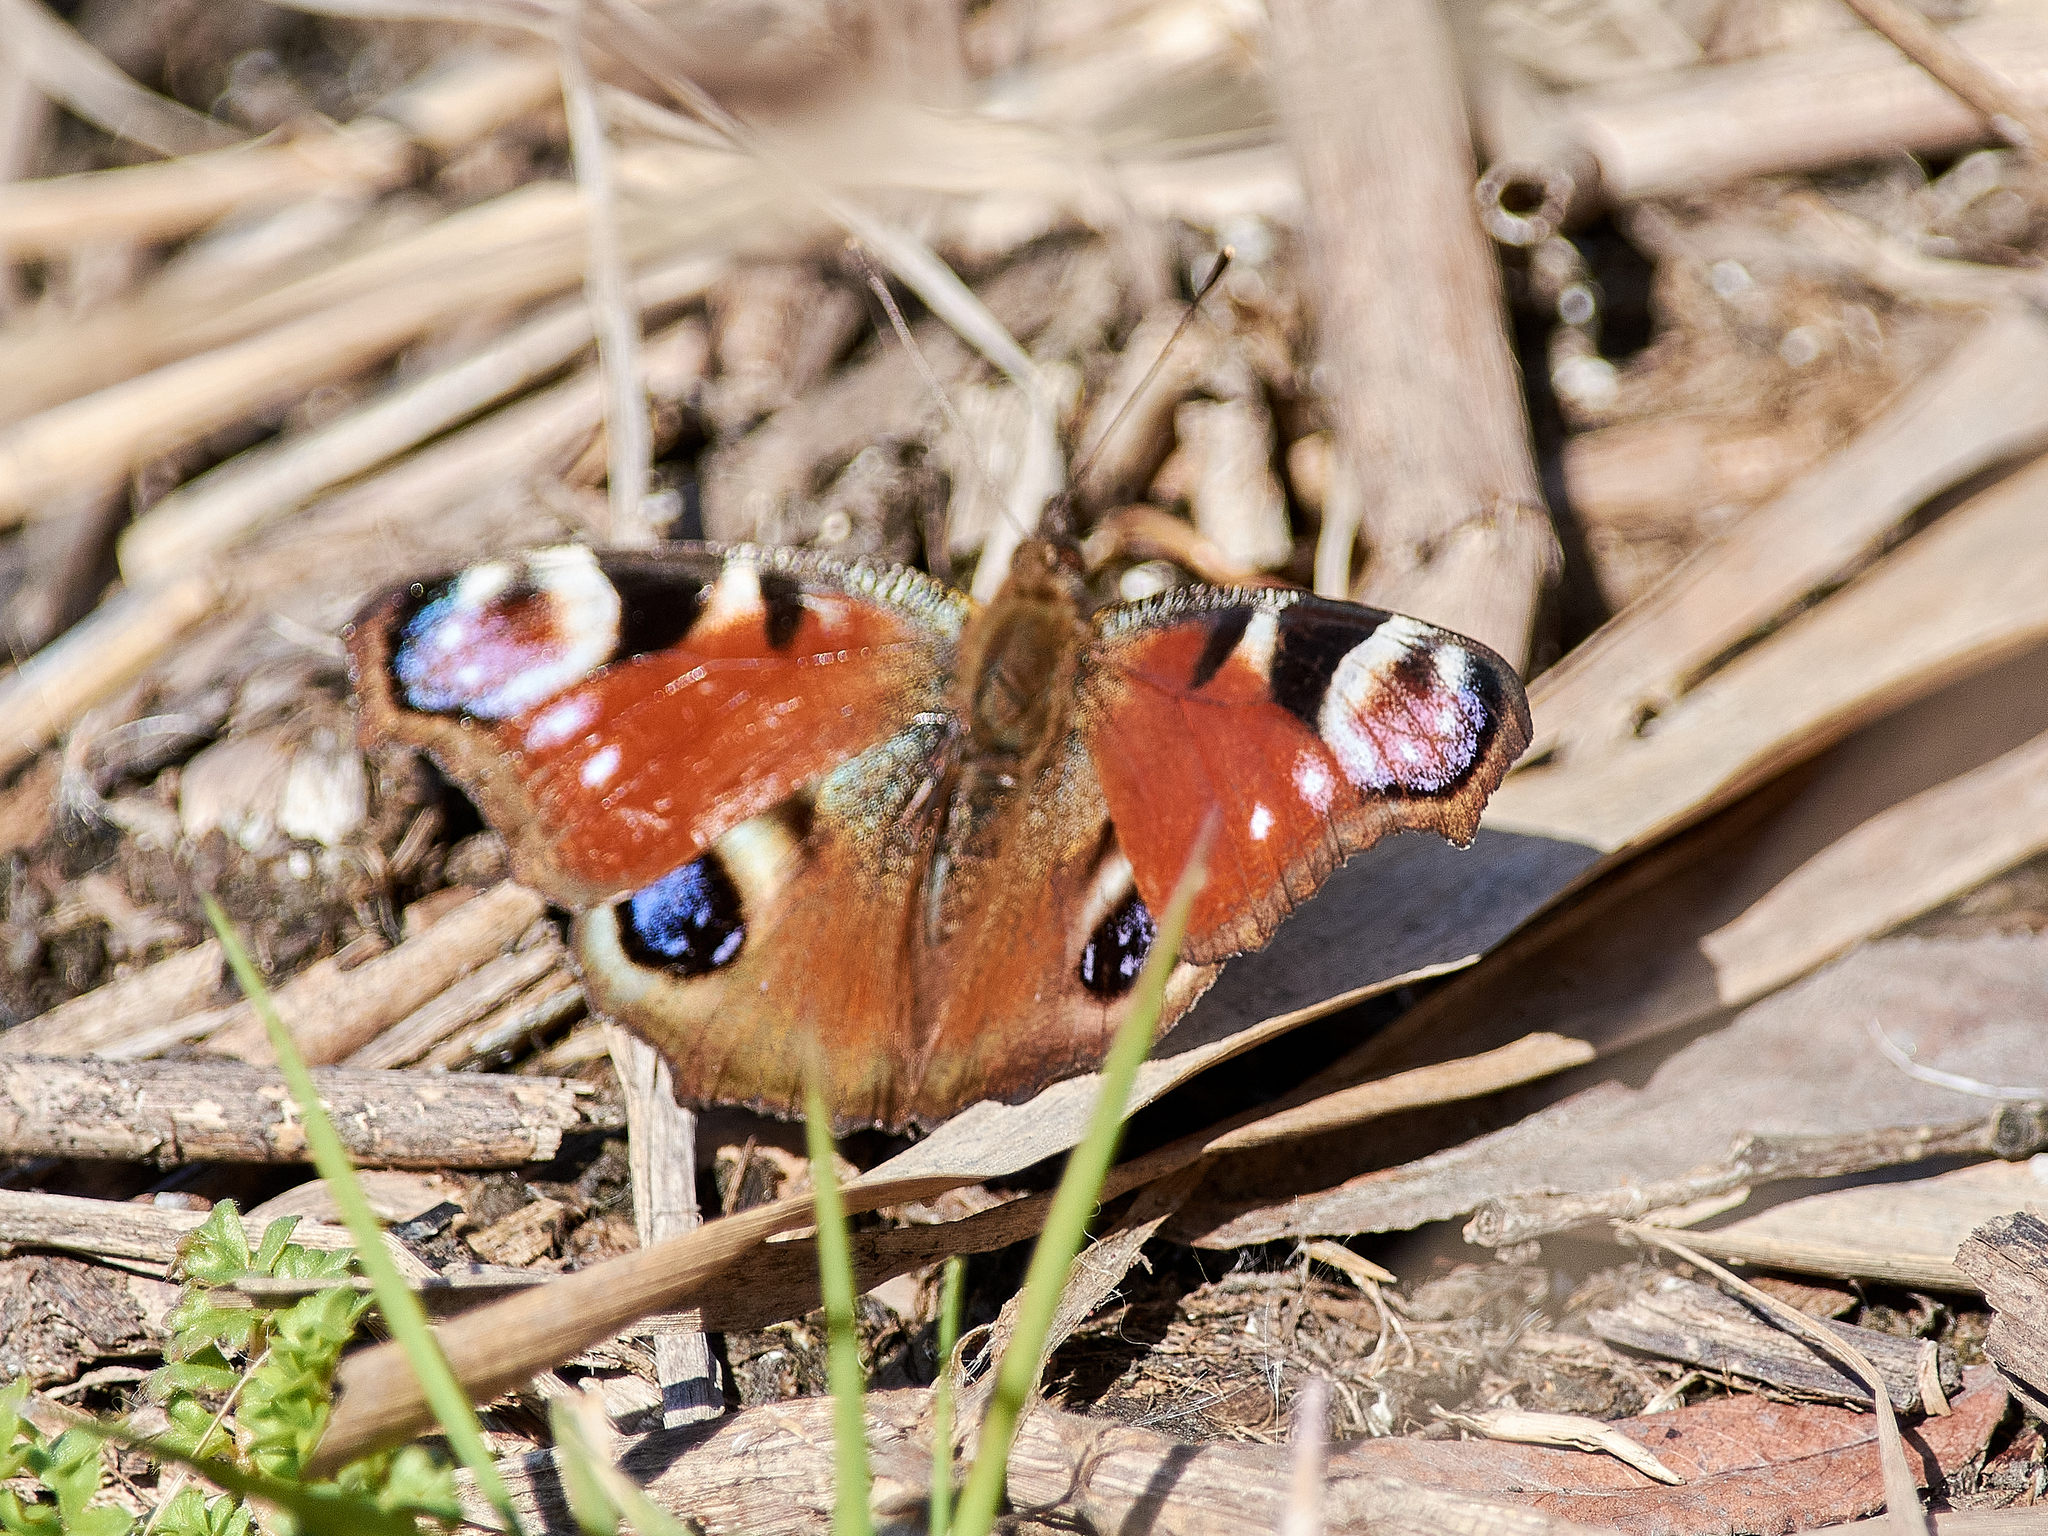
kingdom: Animalia
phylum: Arthropoda
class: Insecta
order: Lepidoptera
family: Nymphalidae
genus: Aglais
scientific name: Aglais io
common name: Peacock
